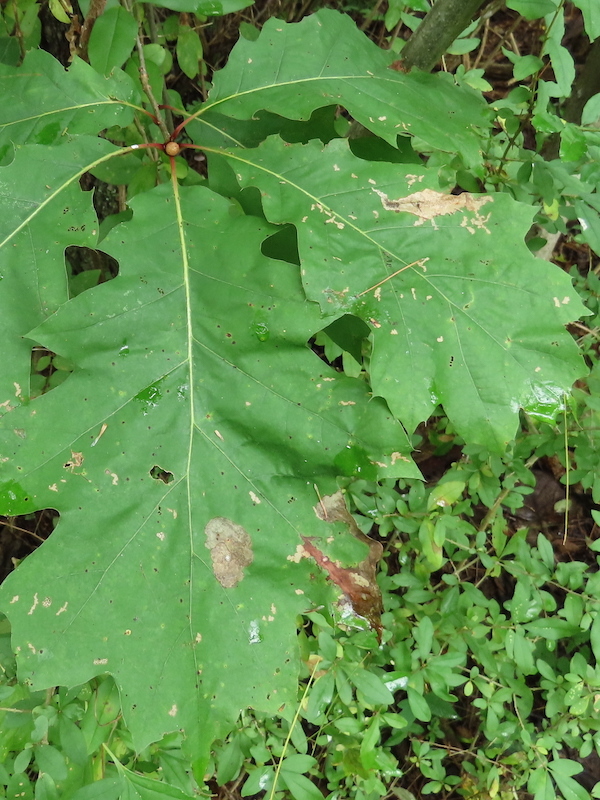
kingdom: Animalia
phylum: Arthropoda
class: Insecta
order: Hymenoptera
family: Cynipidae
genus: Amphibolips
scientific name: Amphibolips
